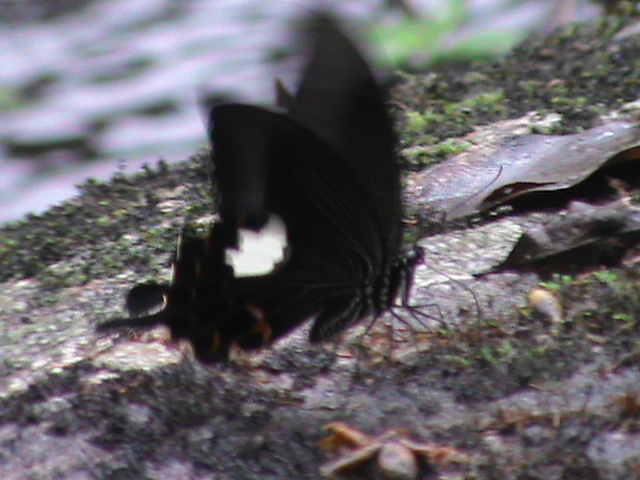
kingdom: Animalia
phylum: Arthropoda
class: Insecta
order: Lepidoptera
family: Papilionidae
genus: Papilio
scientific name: Papilio helenus
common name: Red helen
